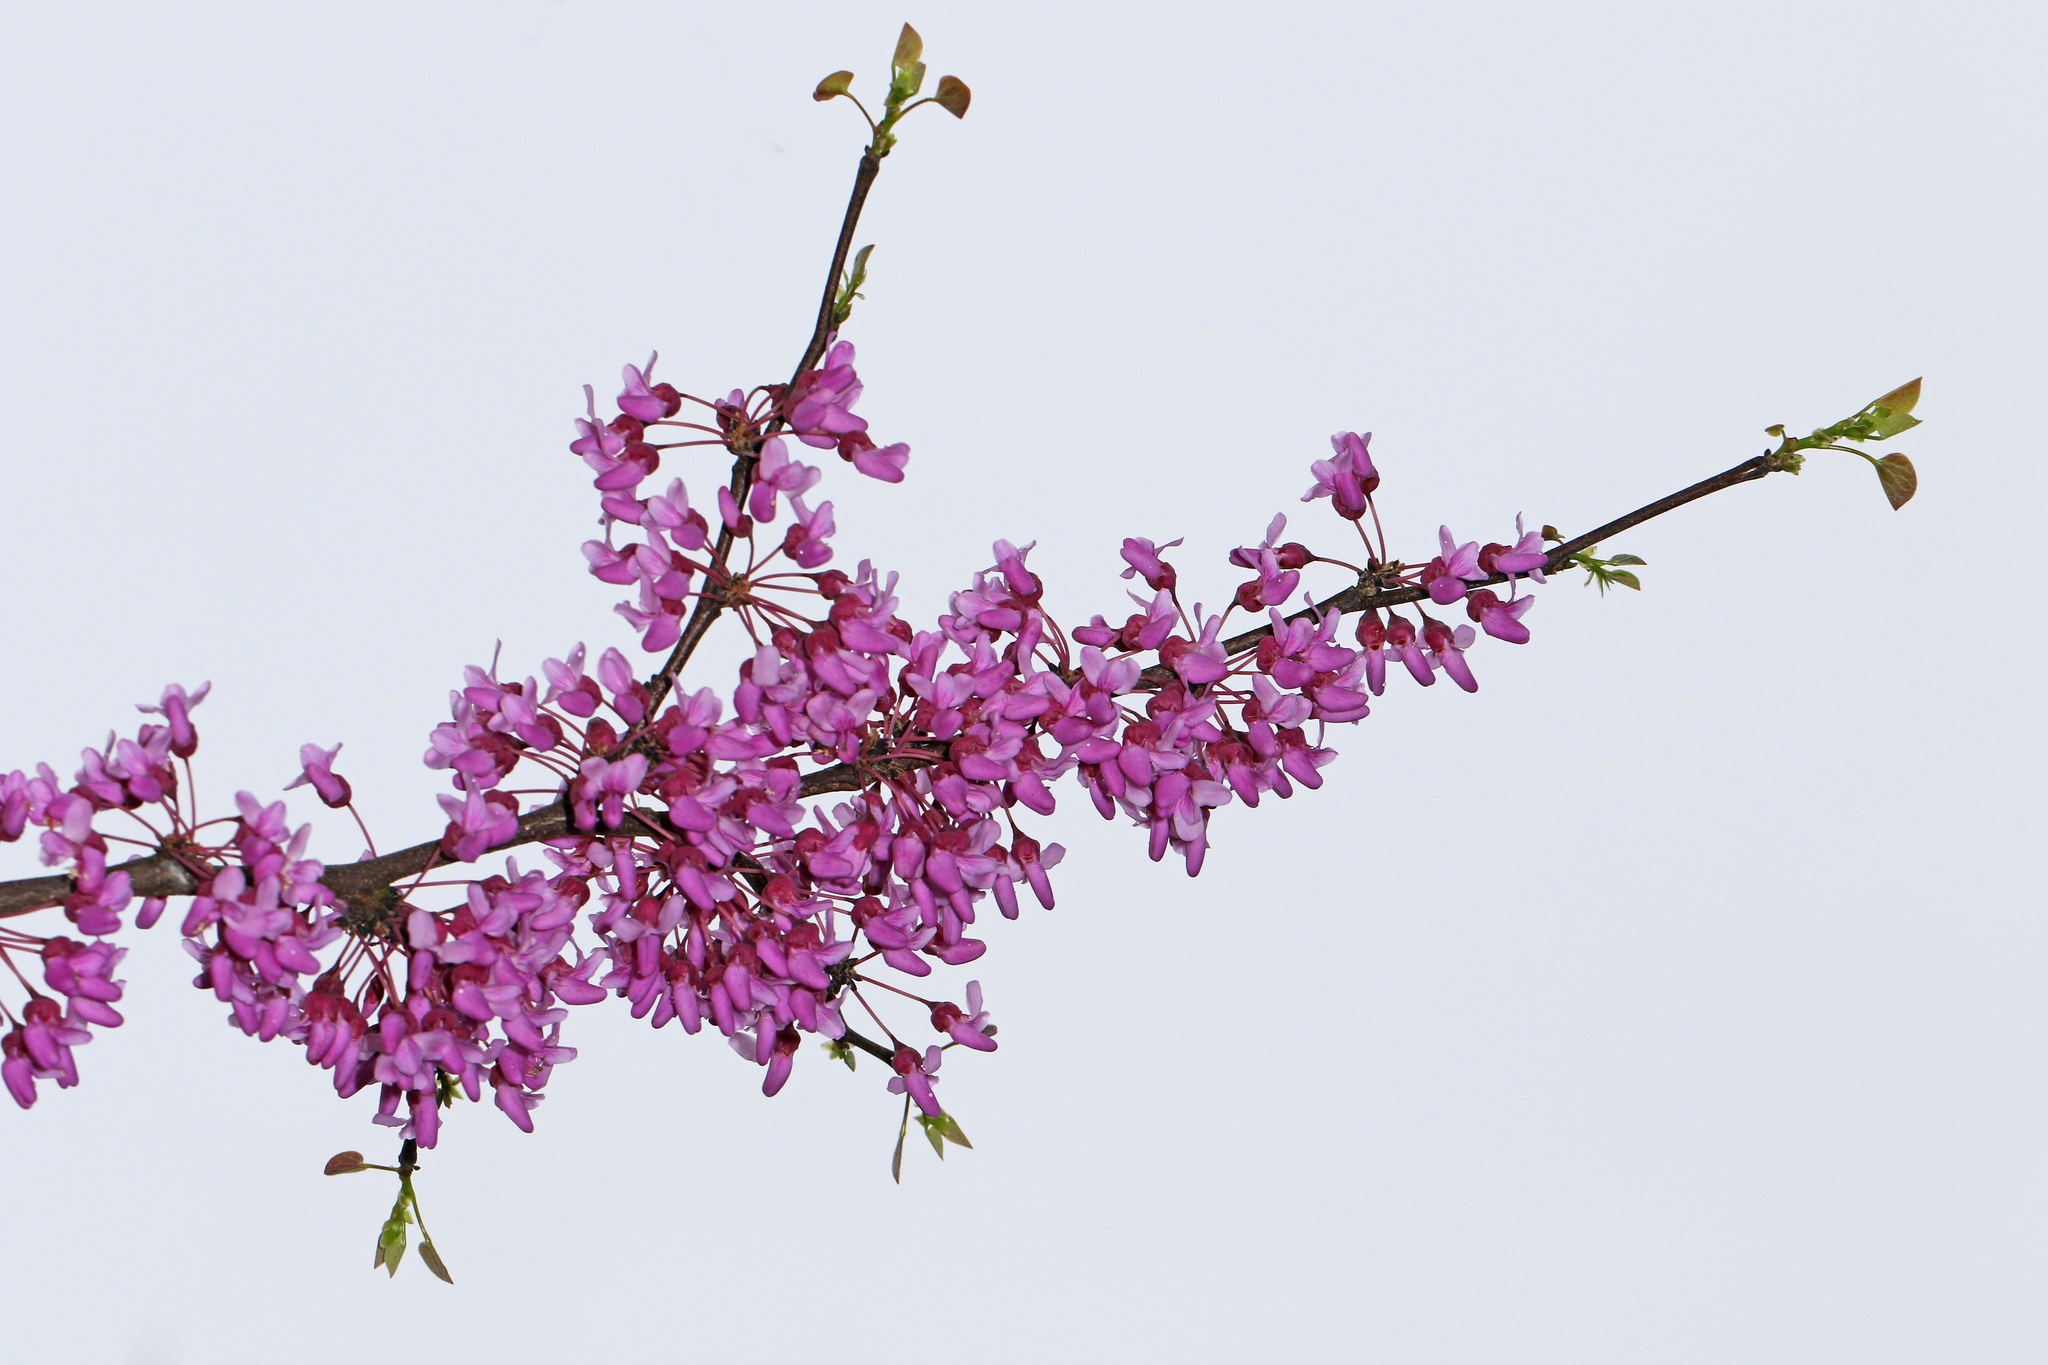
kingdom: Plantae
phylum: Tracheophyta
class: Magnoliopsida
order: Fabales
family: Fabaceae
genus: Cercis
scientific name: Cercis canadensis
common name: Eastern redbud
